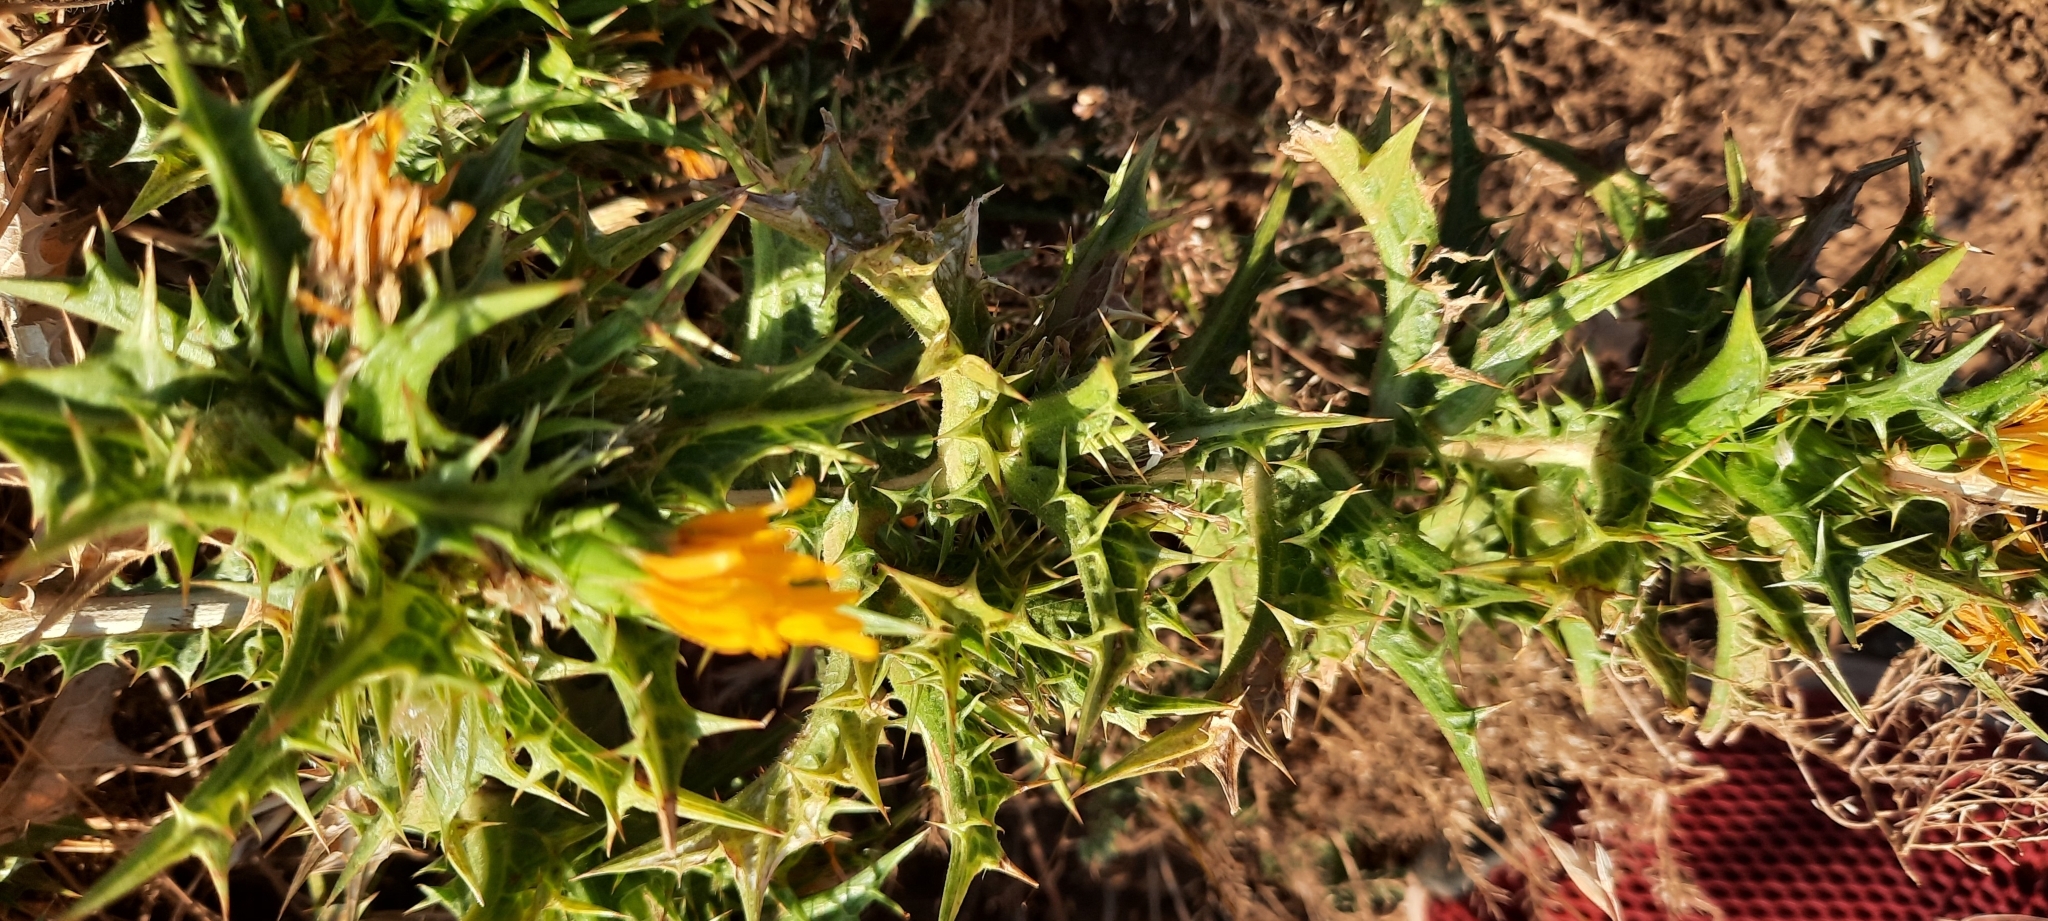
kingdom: Plantae
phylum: Tracheophyta
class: Magnoliopsida
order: Asterales
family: Asteraceae
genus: Scolymus
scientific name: Scolymus hispanicus
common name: Golden thistle
